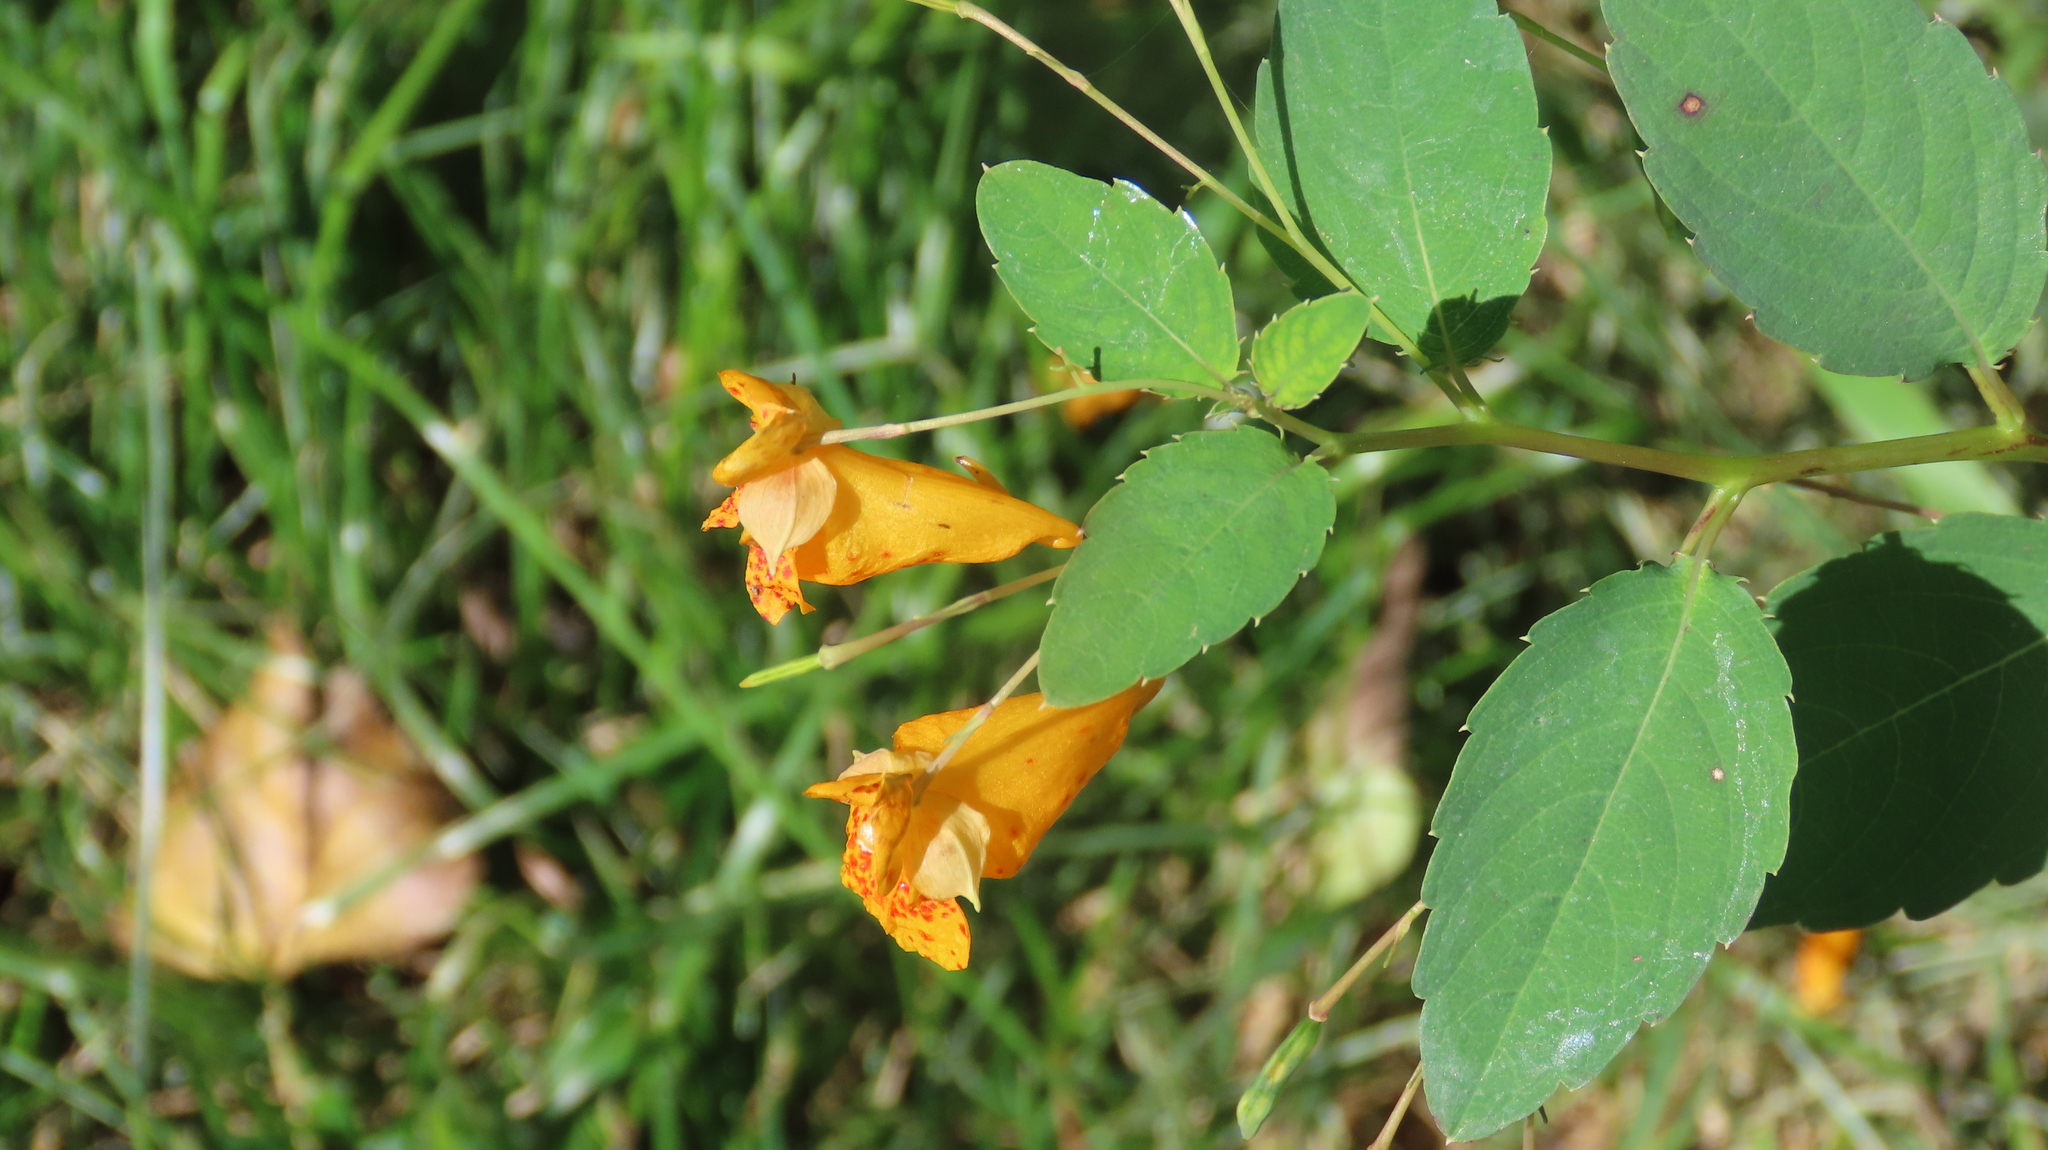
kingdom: Plantae
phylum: Tracheophyta
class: Magnoliopsida
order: Ericales
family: Balsaminaceae
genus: Impatiens
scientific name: Impatiens capensis
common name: Orange balsam
